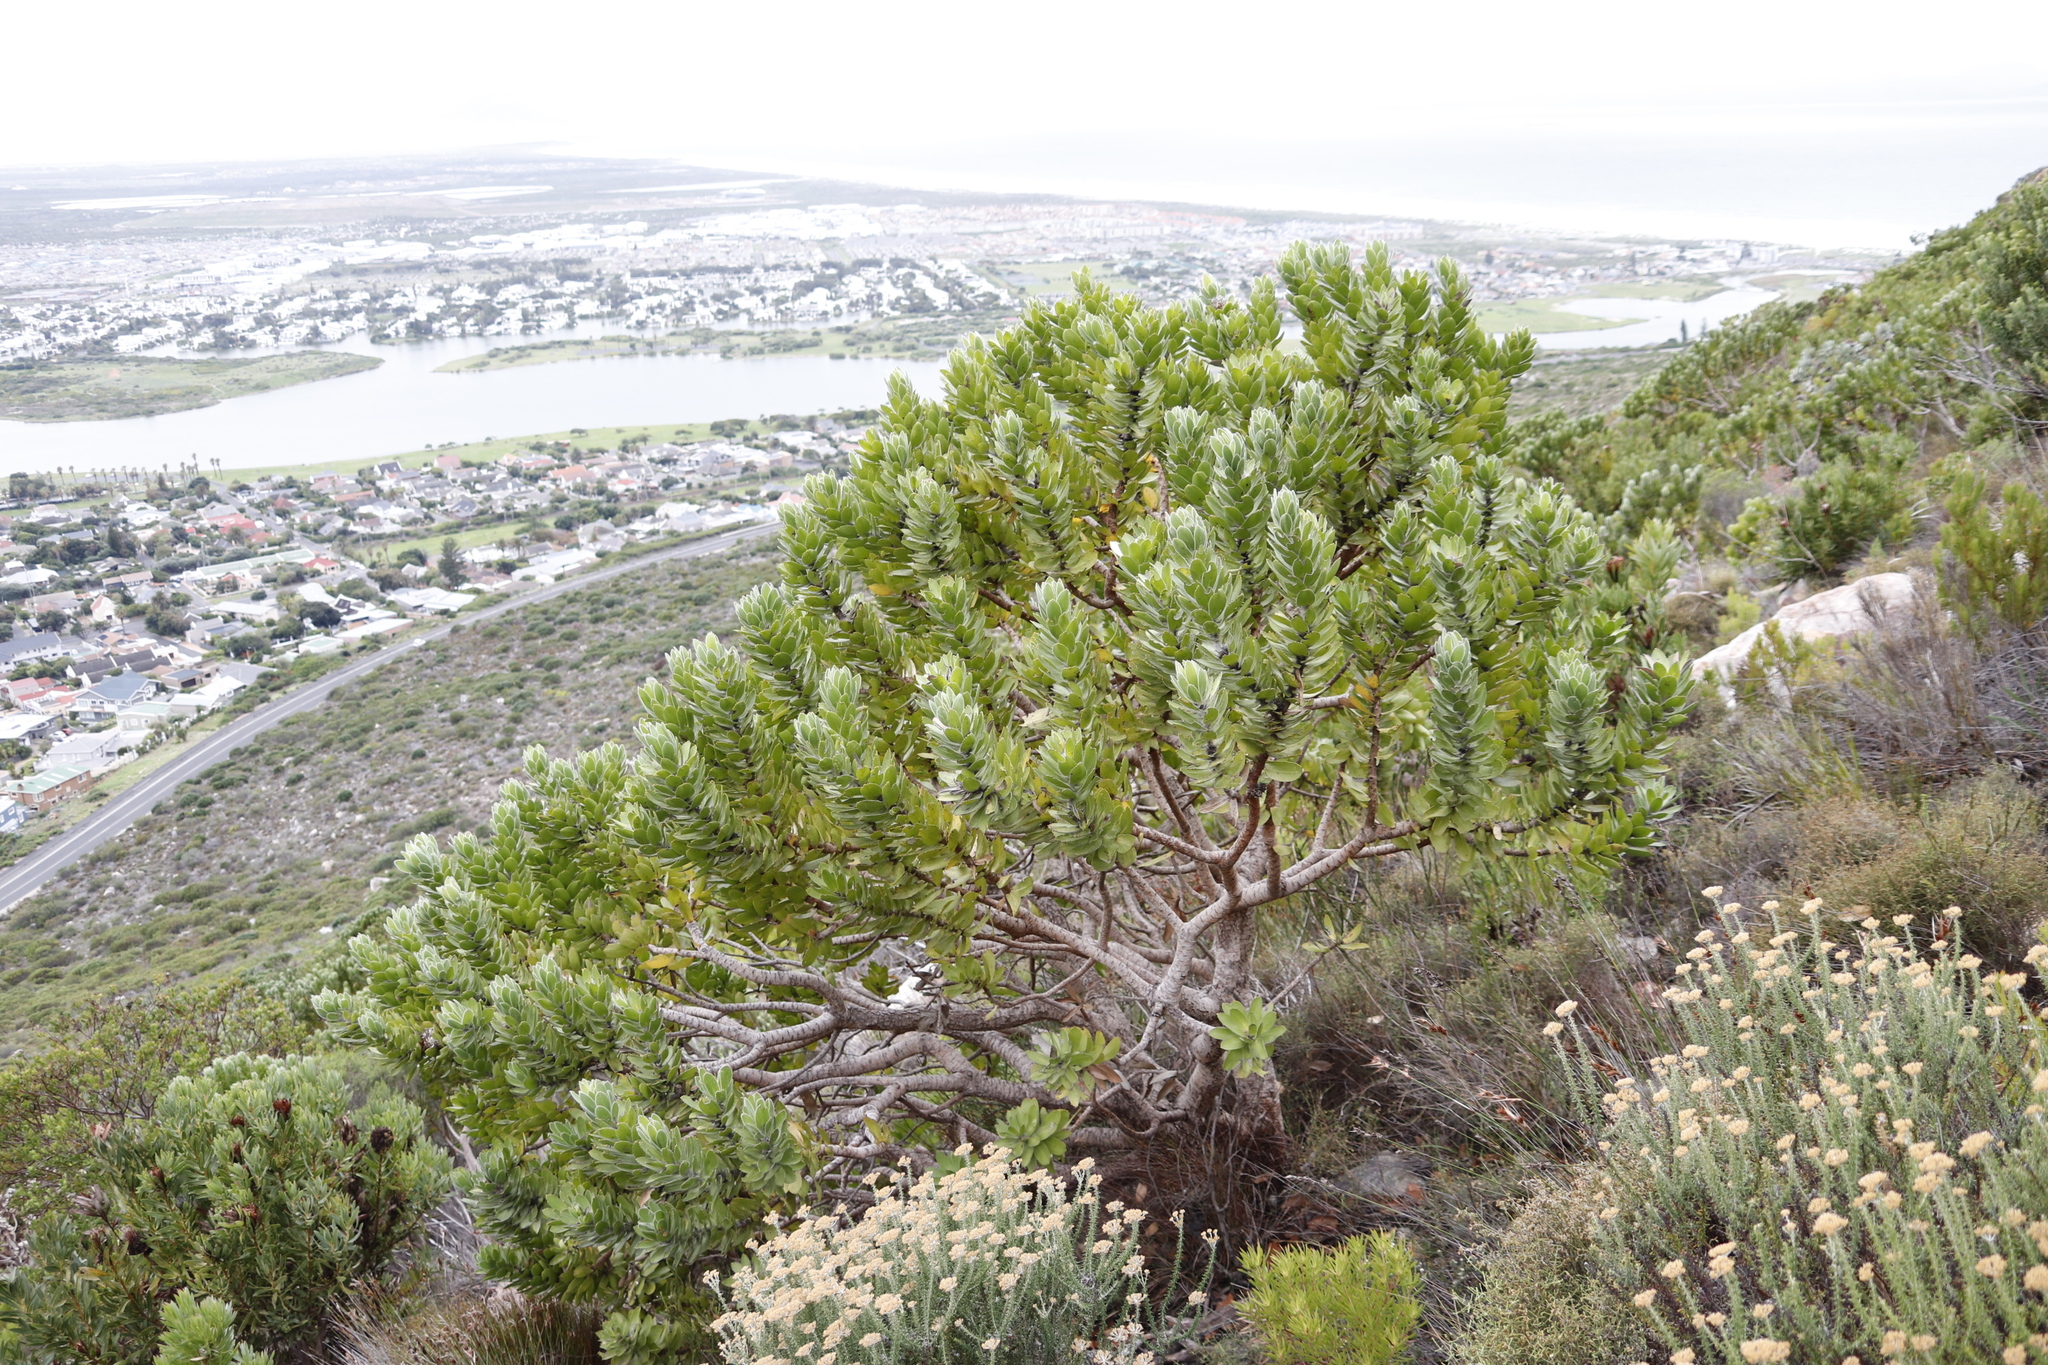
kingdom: Plantae
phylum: Tracheophyta
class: Magnoliopsida
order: Proteales
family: Proteaceae
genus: Leucospermum
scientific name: Leucospermum conocarpodendron
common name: Tree pincushion
